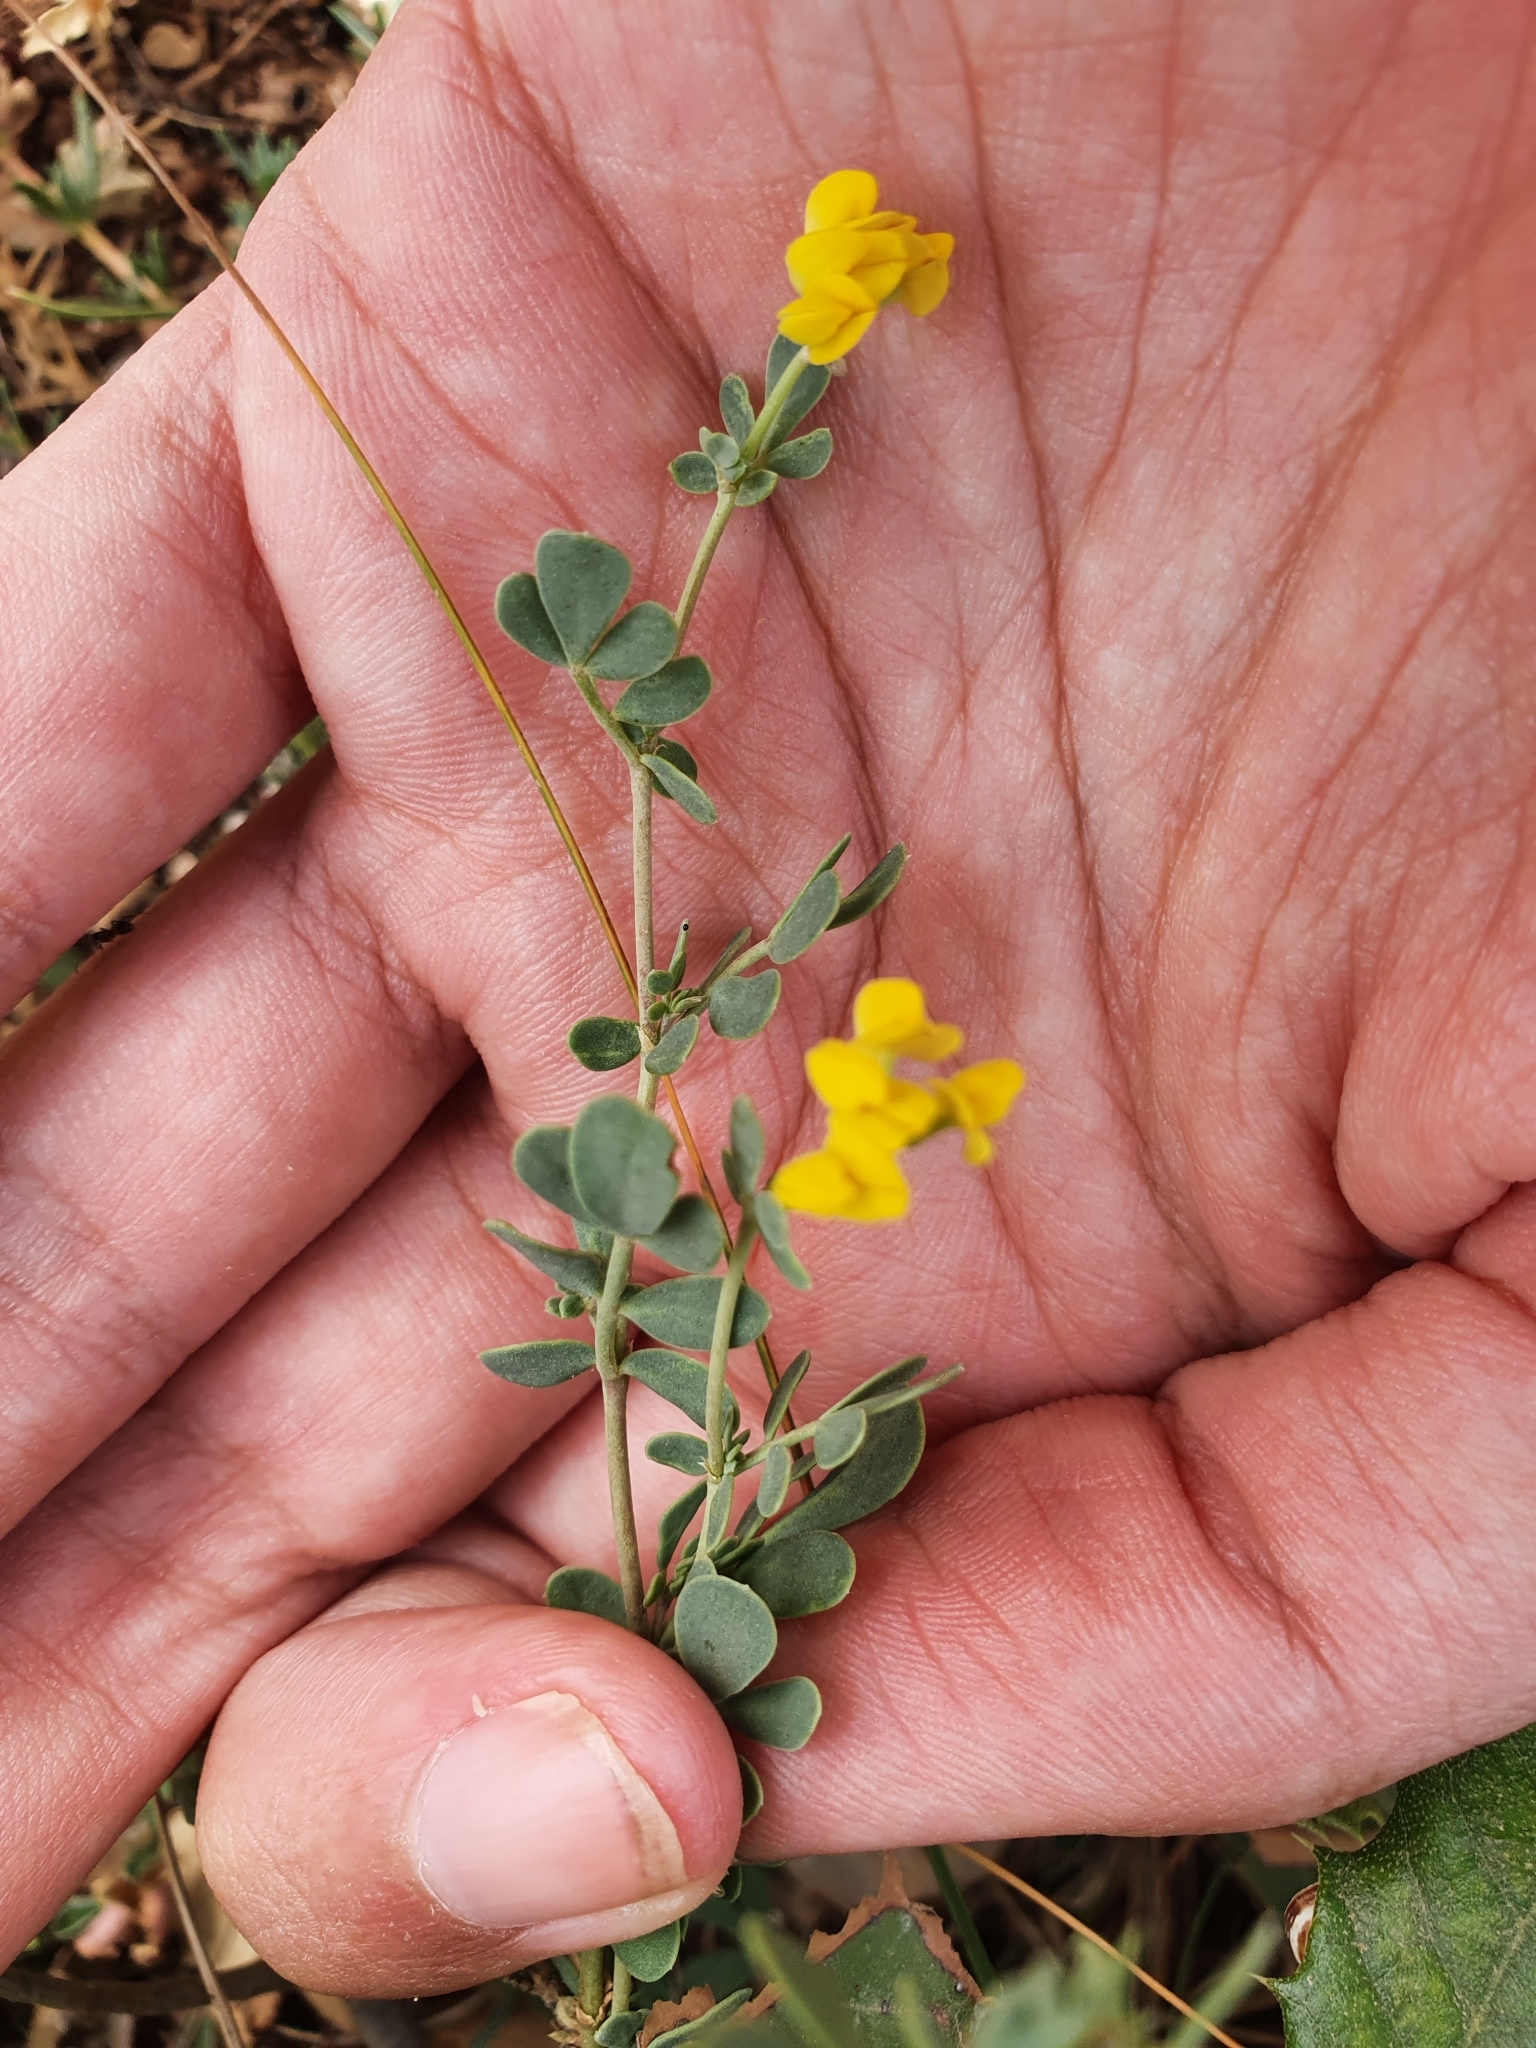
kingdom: Plantae
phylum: Tracheophyta
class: Magnoliopsida
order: Fabales
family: Fabaceae
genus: Coronilla
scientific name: Coronilla minima
